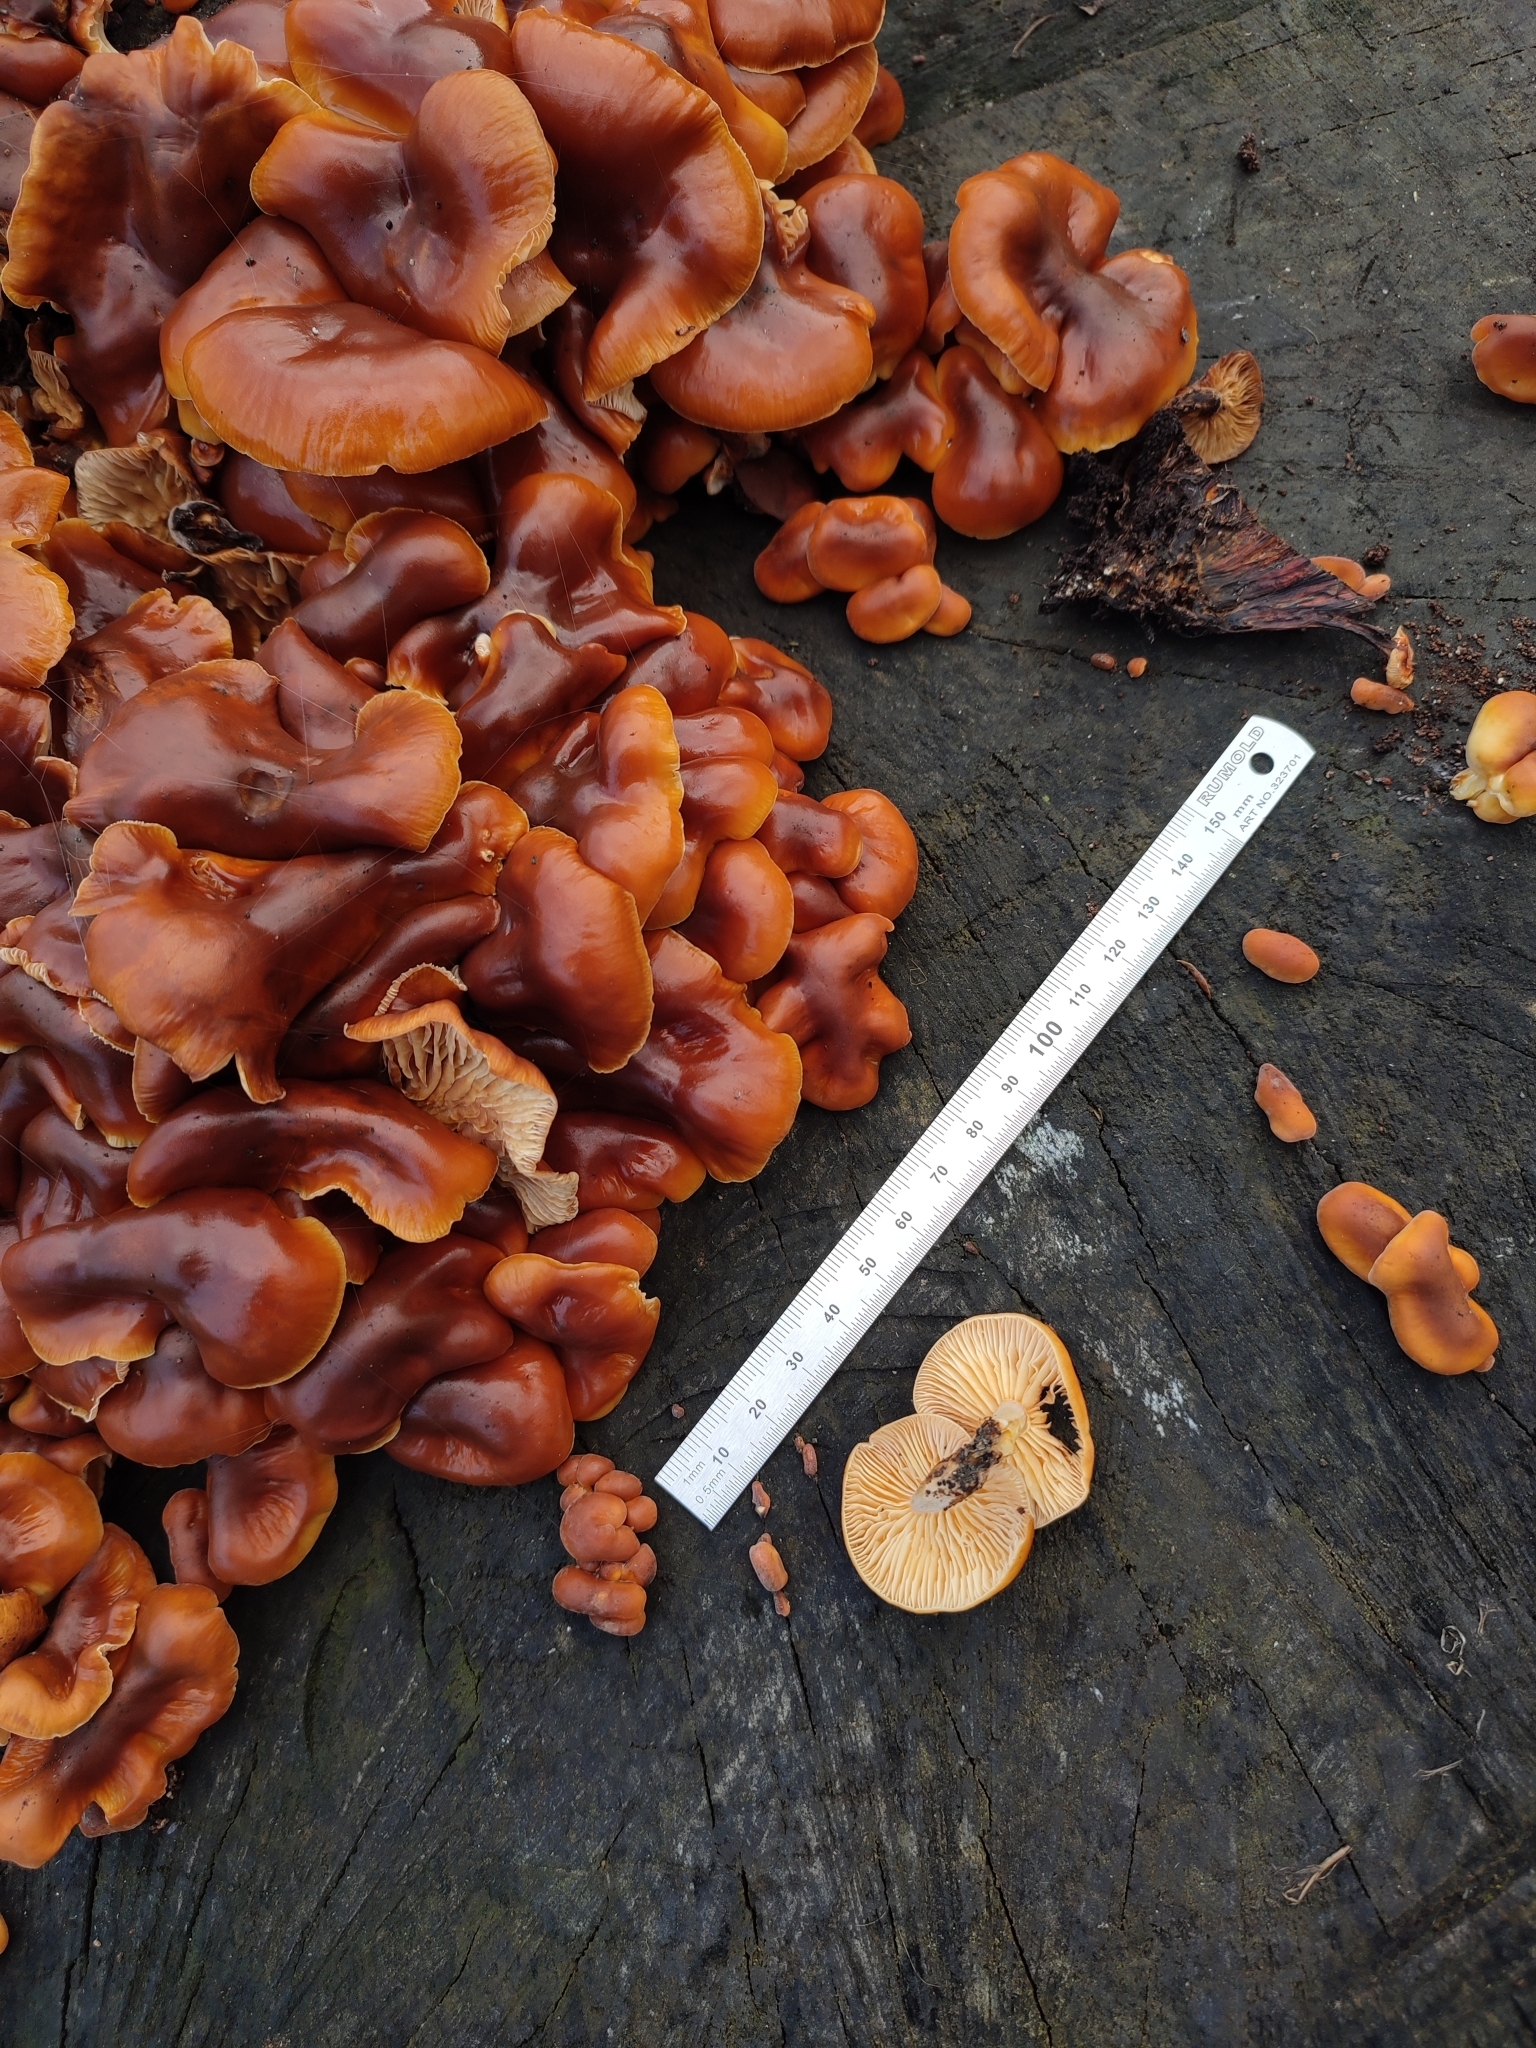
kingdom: Fungi
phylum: Basidiomycota
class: Agaricomycetes
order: Agaricales
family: Physalacriaceae
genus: Flammulina
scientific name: Flammulina
